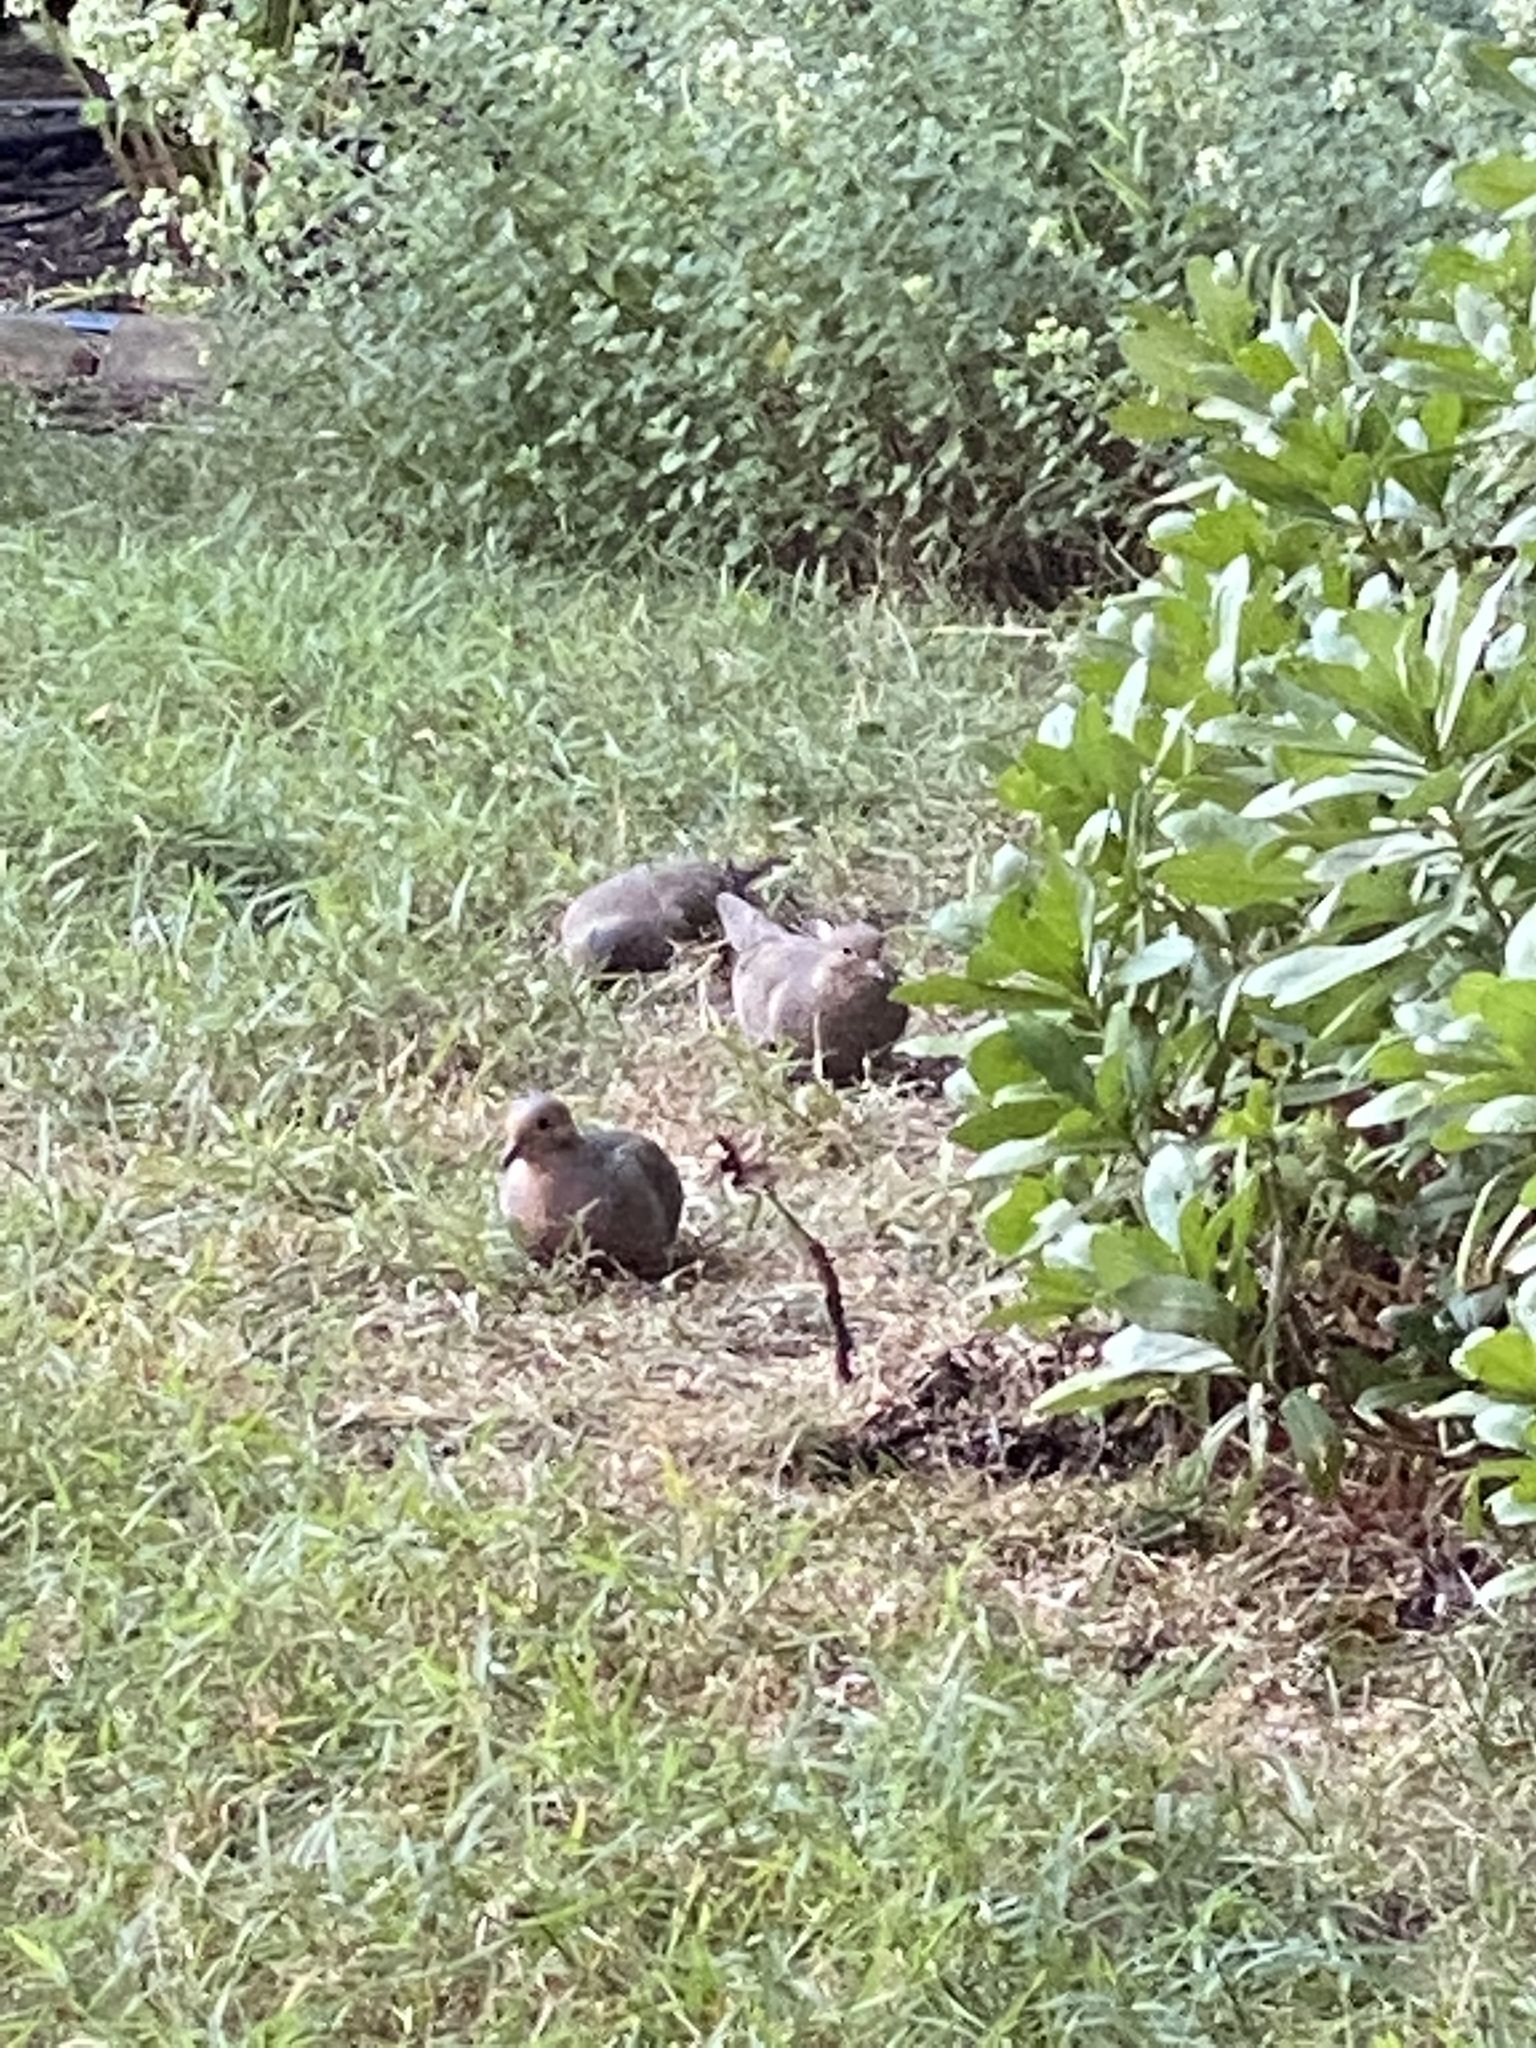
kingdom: Animalia
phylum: Chordata
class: Aves
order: Columbiformes
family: Columbidae
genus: Zenaida
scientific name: Zenaida macroura
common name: Mourning dove
